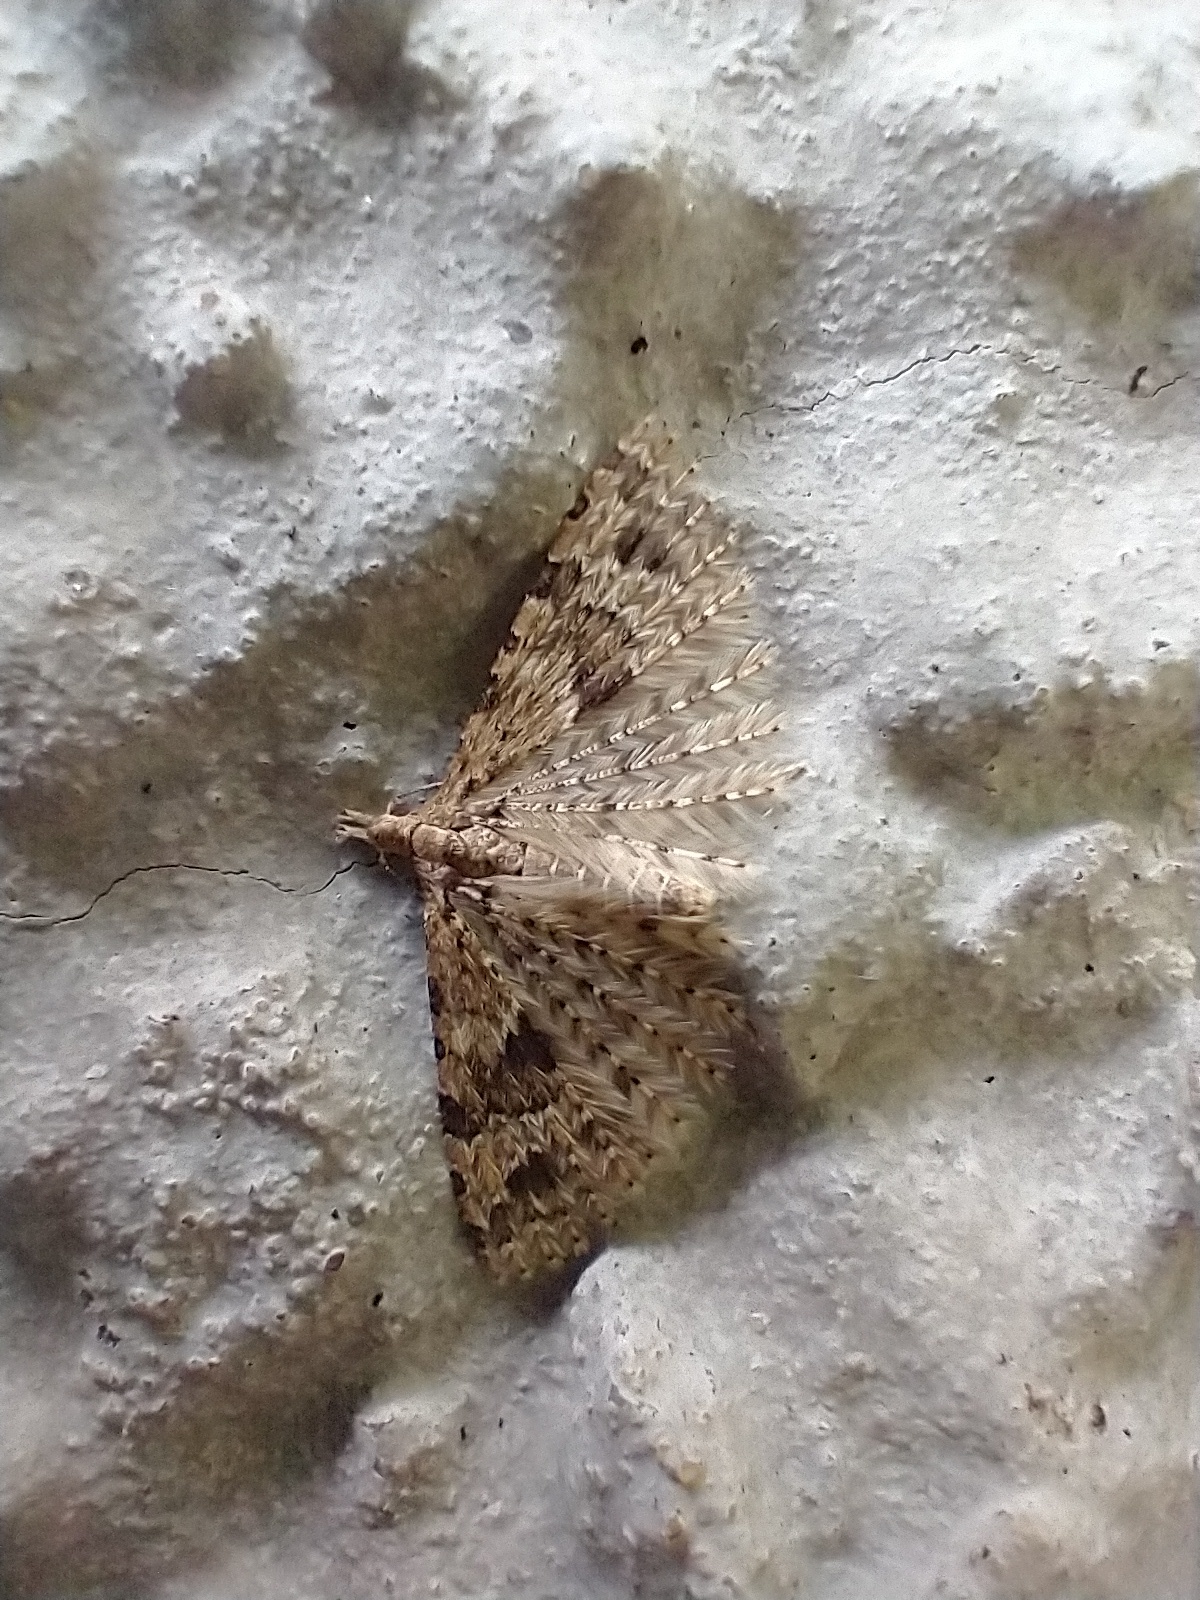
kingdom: Animalia
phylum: Arthropoda
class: Insecta
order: Lepidoptera
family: Alucitidae
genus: Alucita
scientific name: Alucita hexadactyla
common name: Twenty-plume moth
